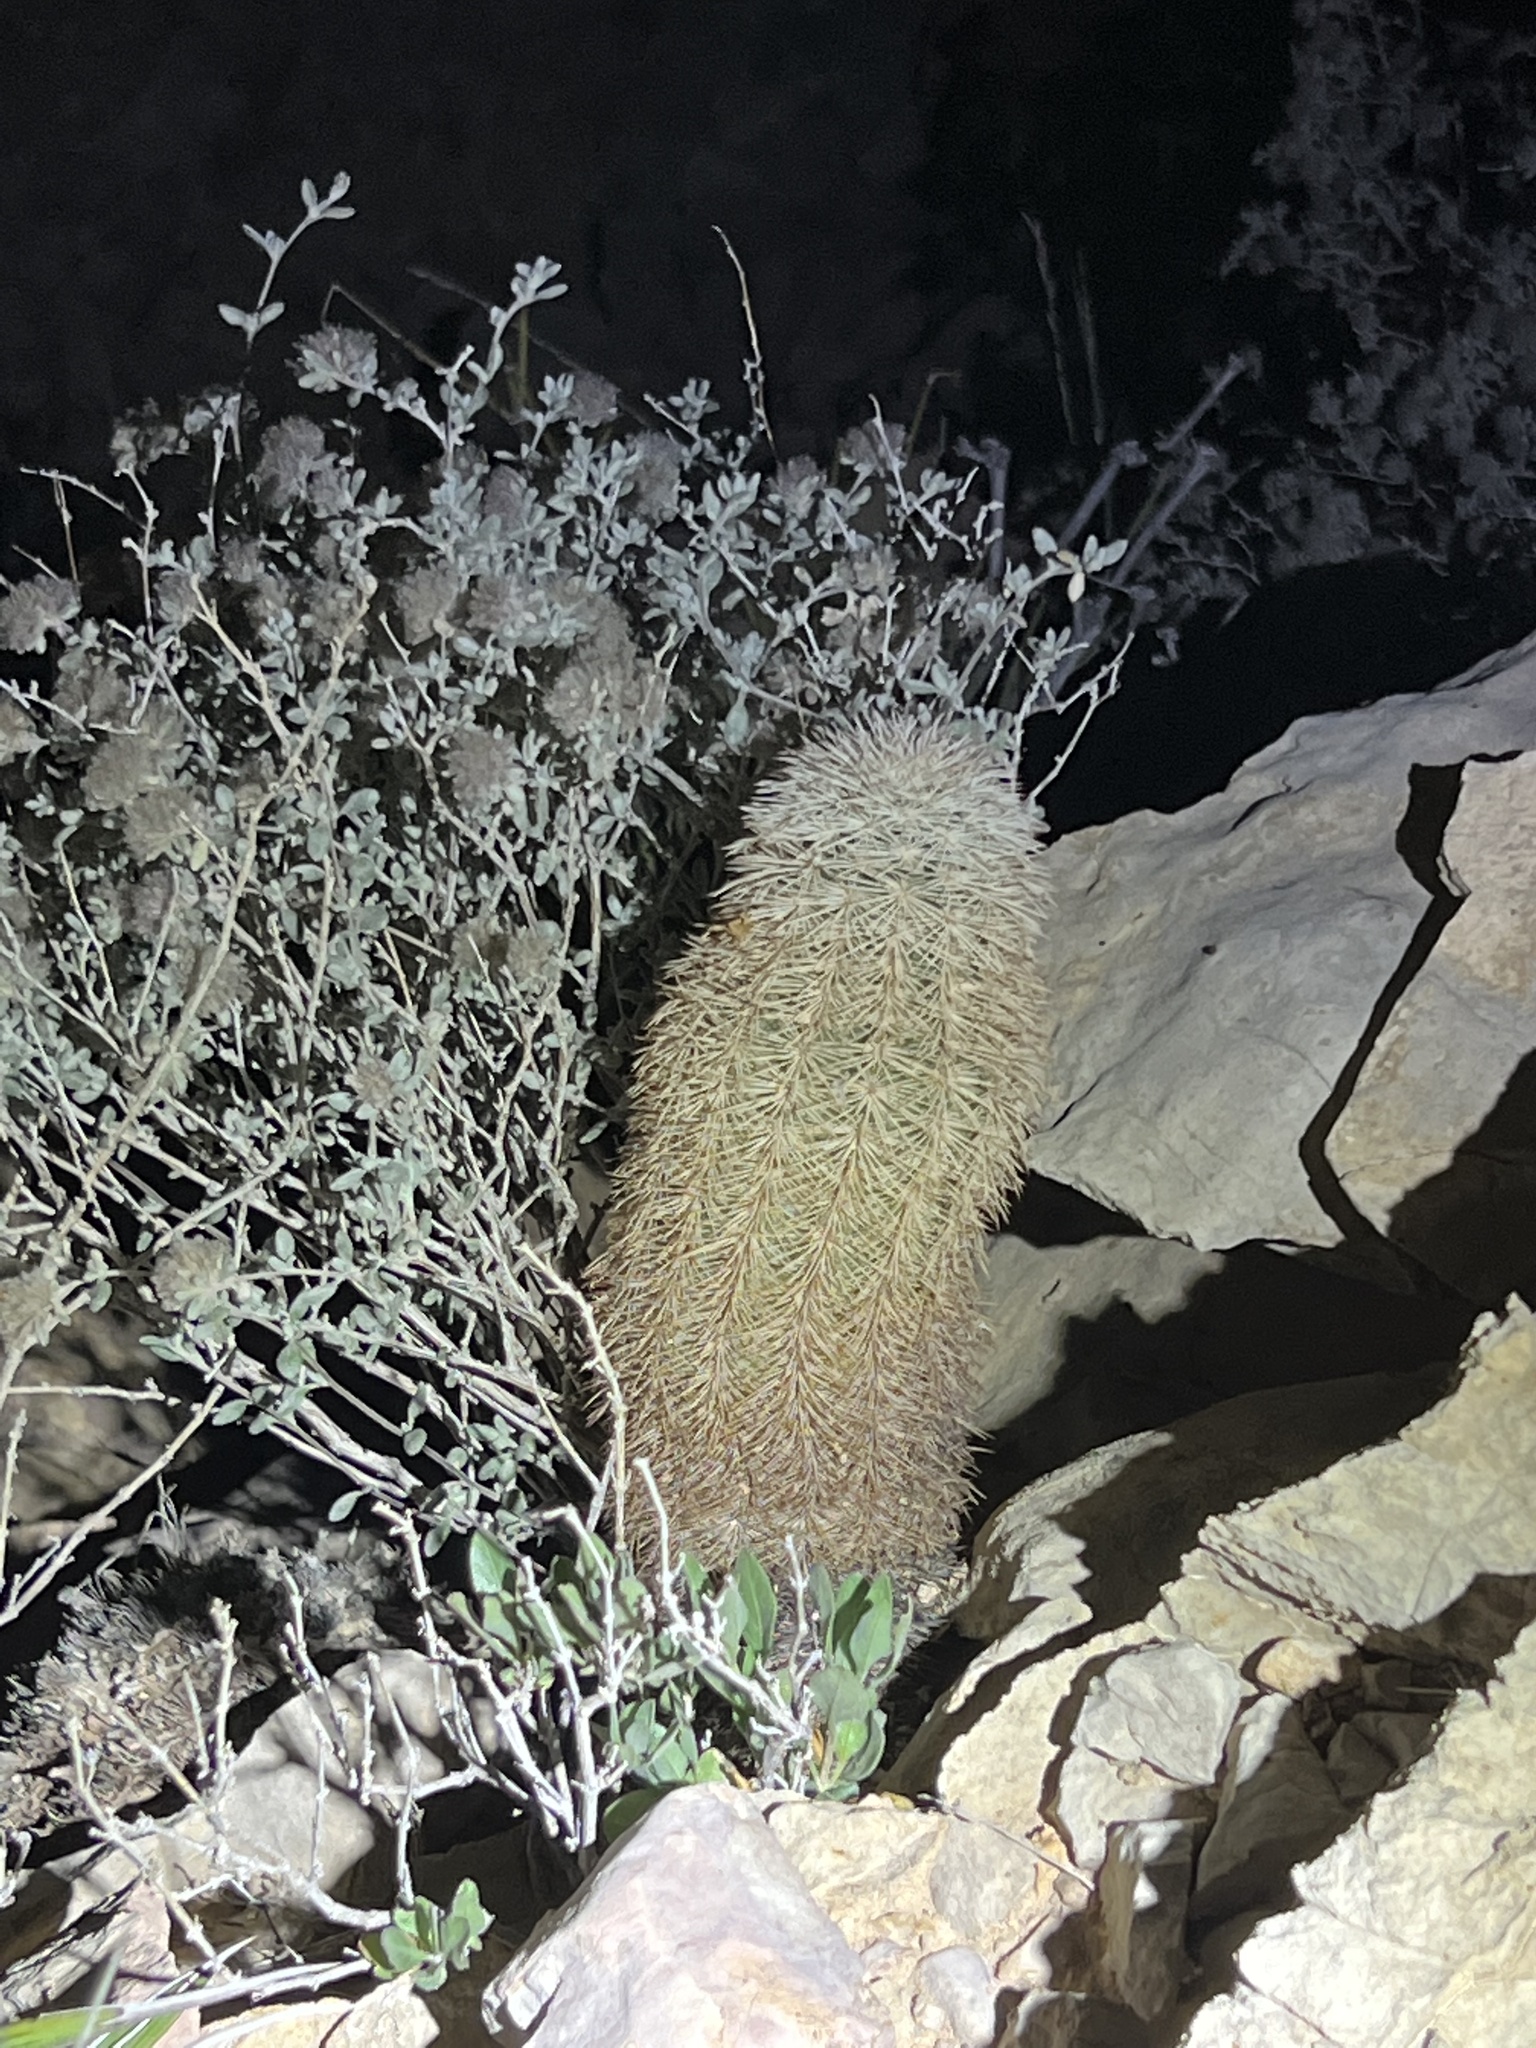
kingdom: Plantae
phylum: Tracheophyta
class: Magnoliopsida
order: Caryophyllales
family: Cactaceae
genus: Echinocereus
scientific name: Echinocereus dasyacanthus
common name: Spiny hedgehog cactus
